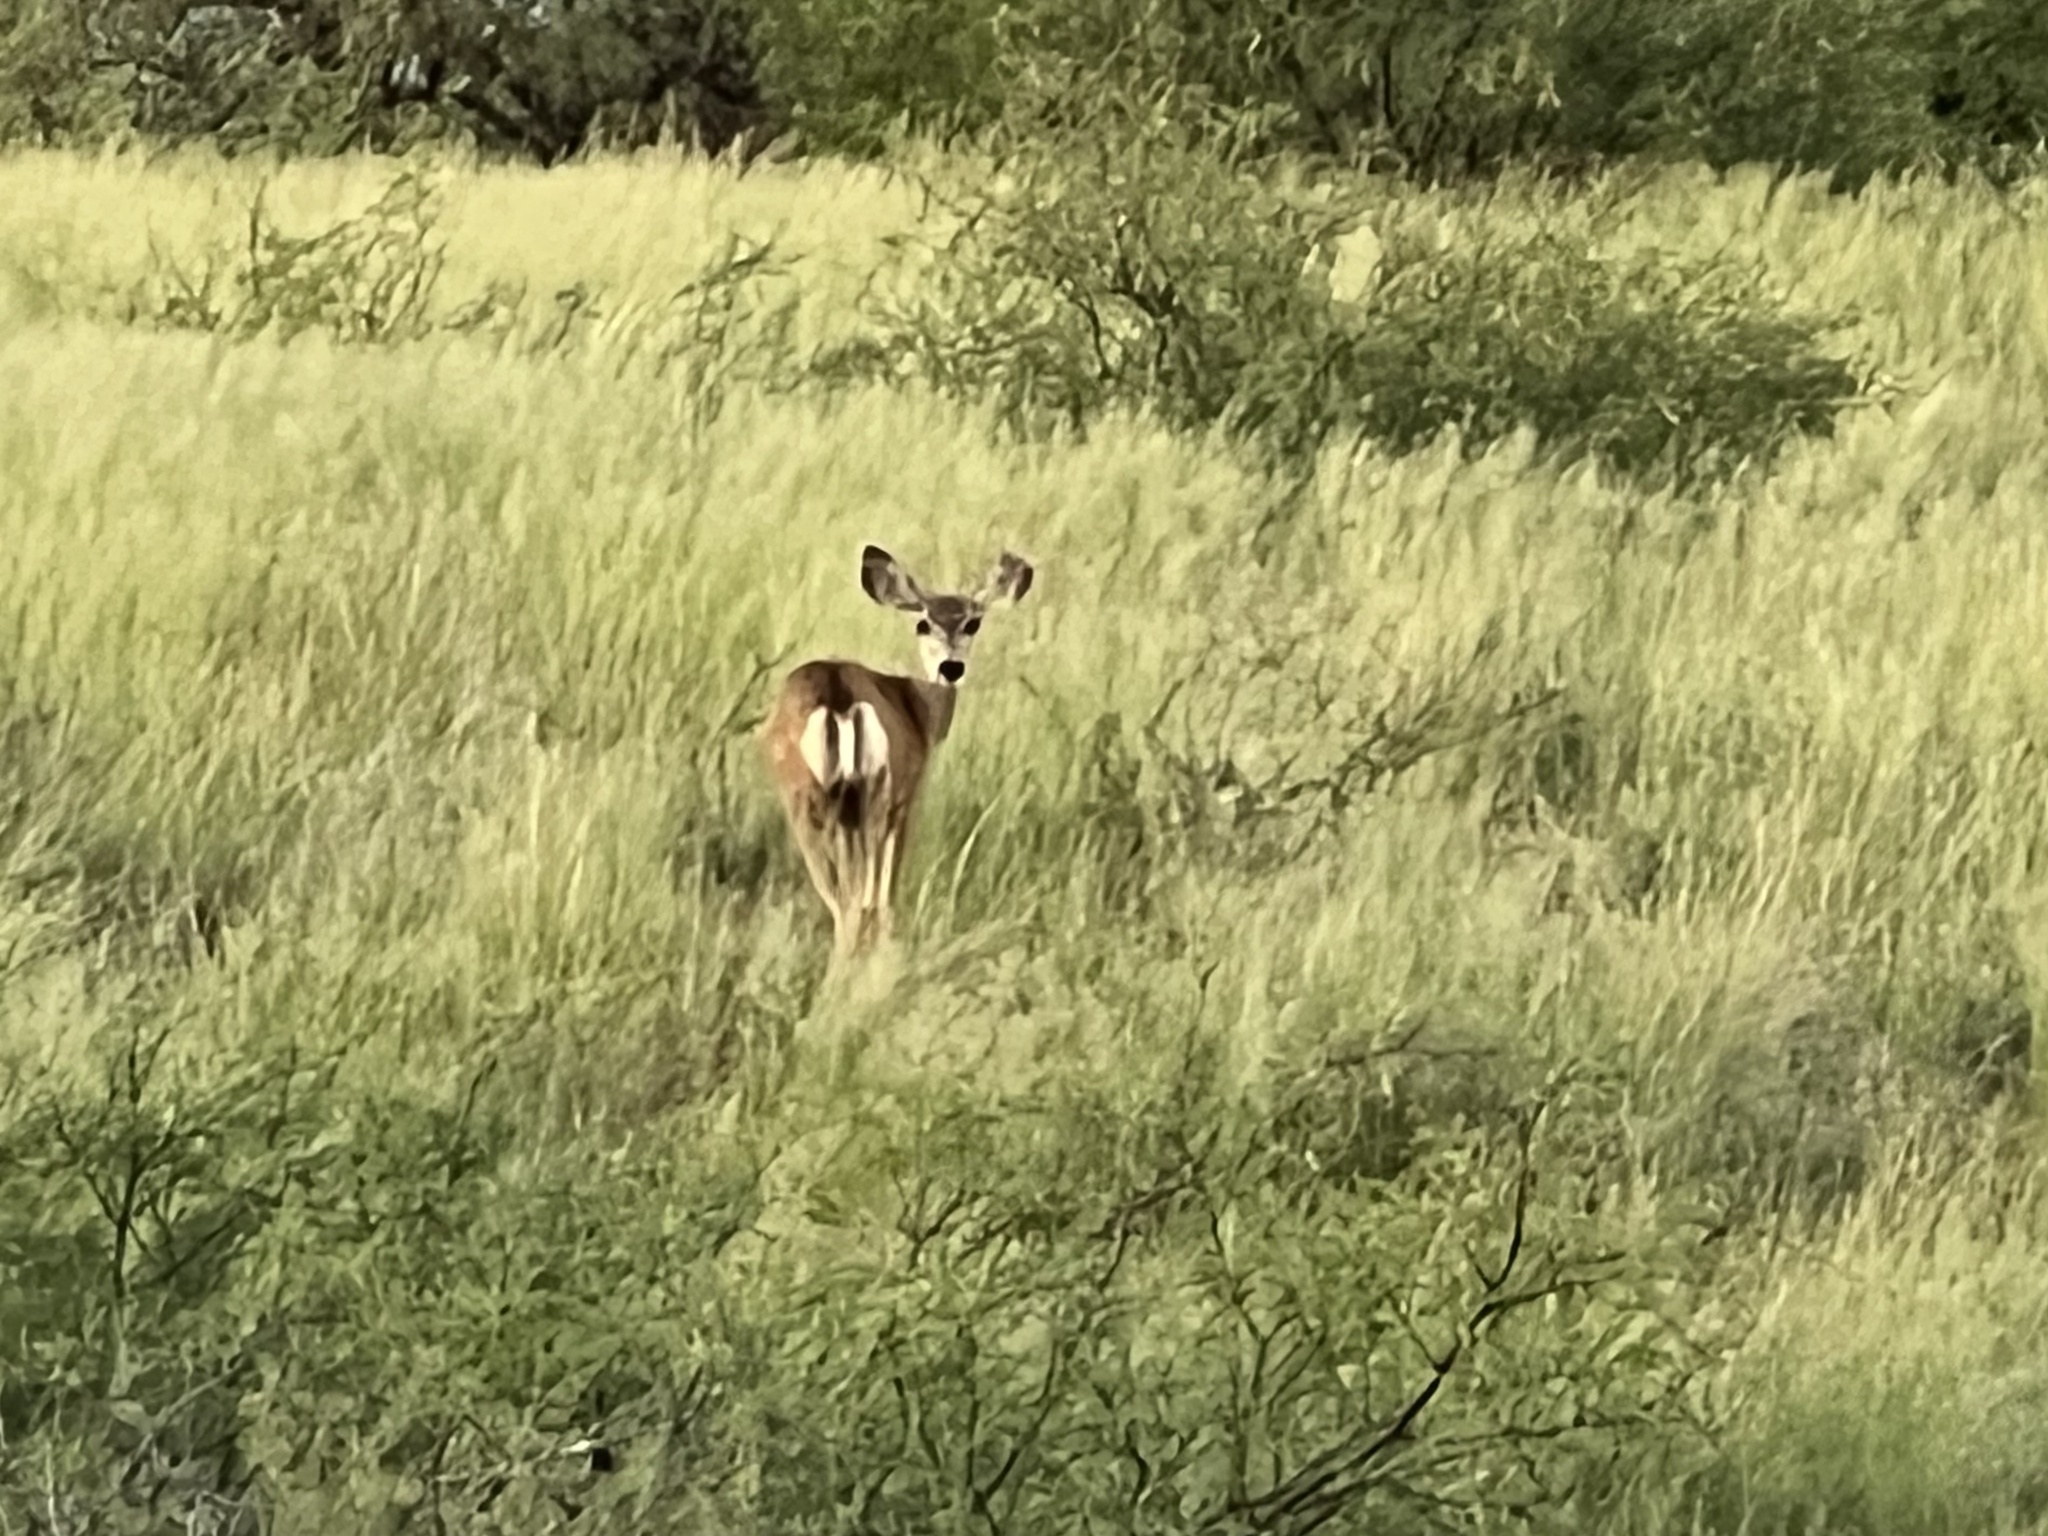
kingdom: Animalia
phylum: Chordata
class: Mammalia
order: Artiodactyla
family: Cervidae
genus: Odocoileus
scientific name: Odocoileus hemionus
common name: Mule deer
